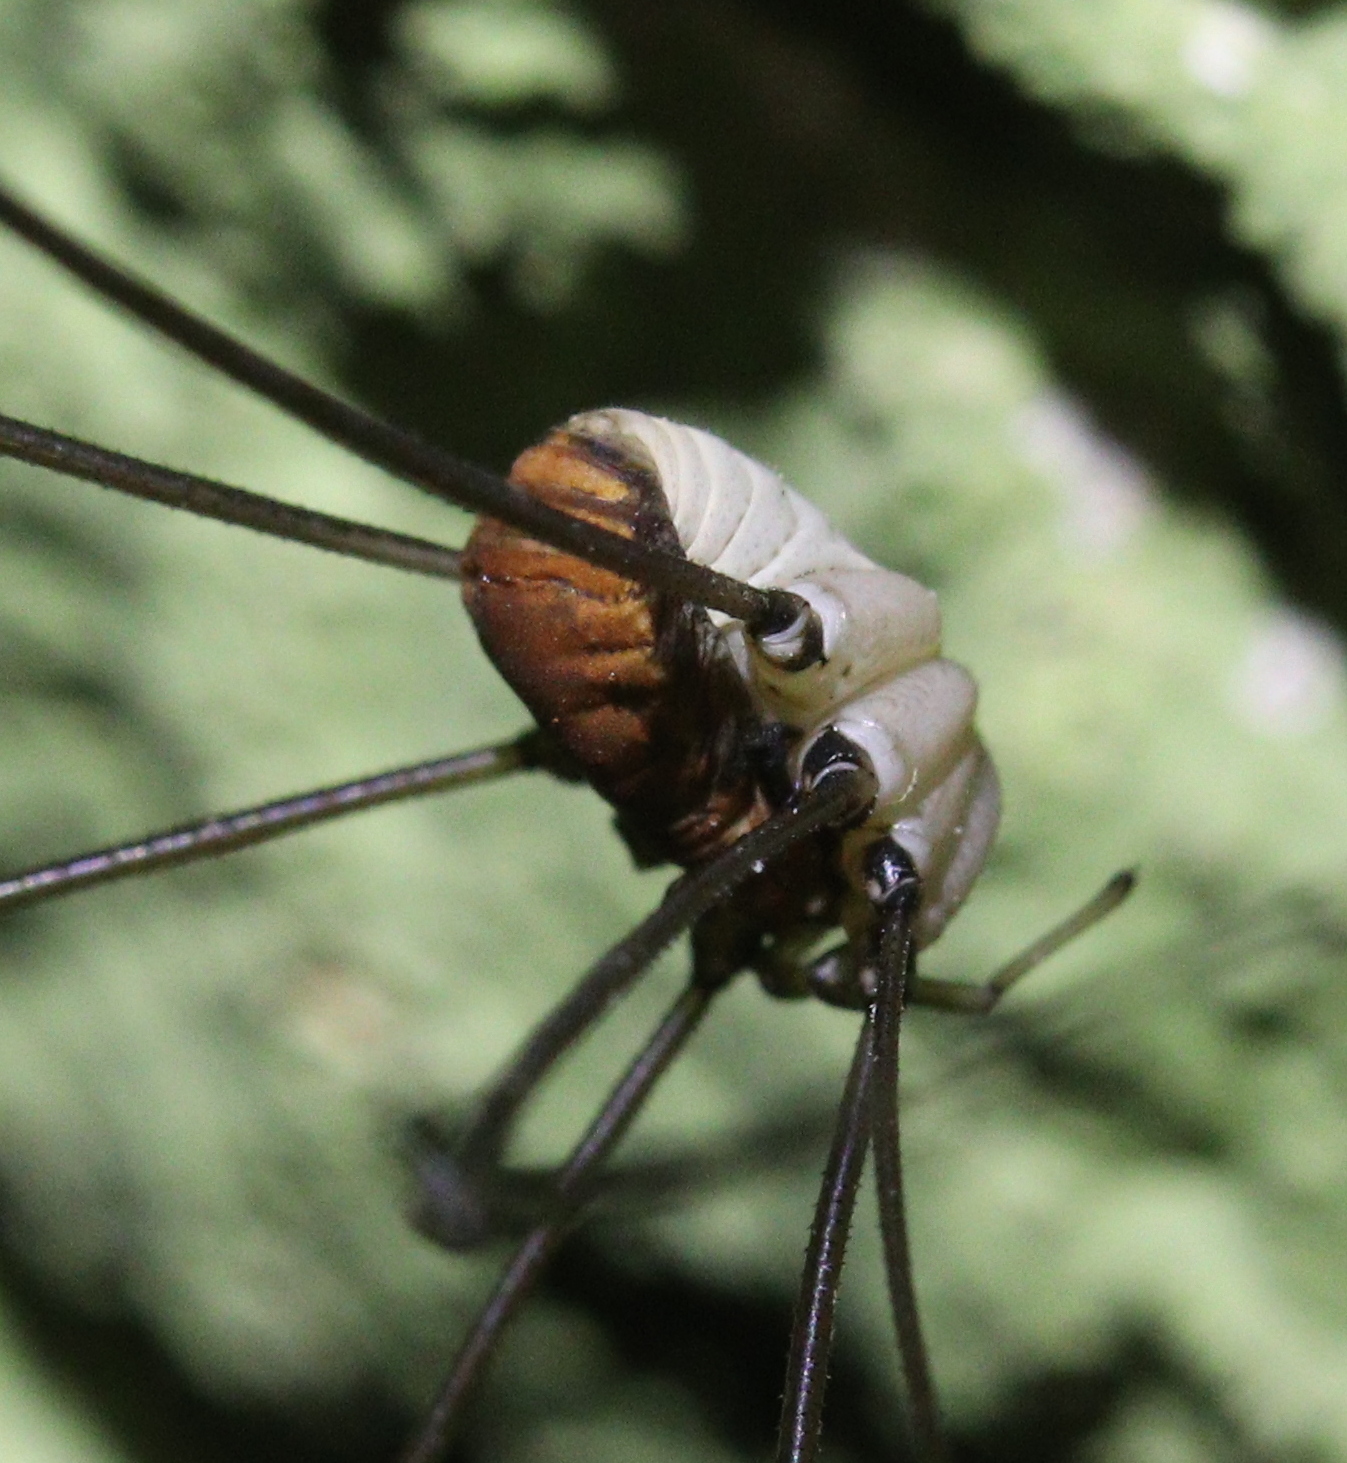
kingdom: Animalia
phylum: Arthropoda
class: Arachnida
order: Opiliones
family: Sclerosomatidae
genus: Leiobunum
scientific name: Leiobunum limbatum
